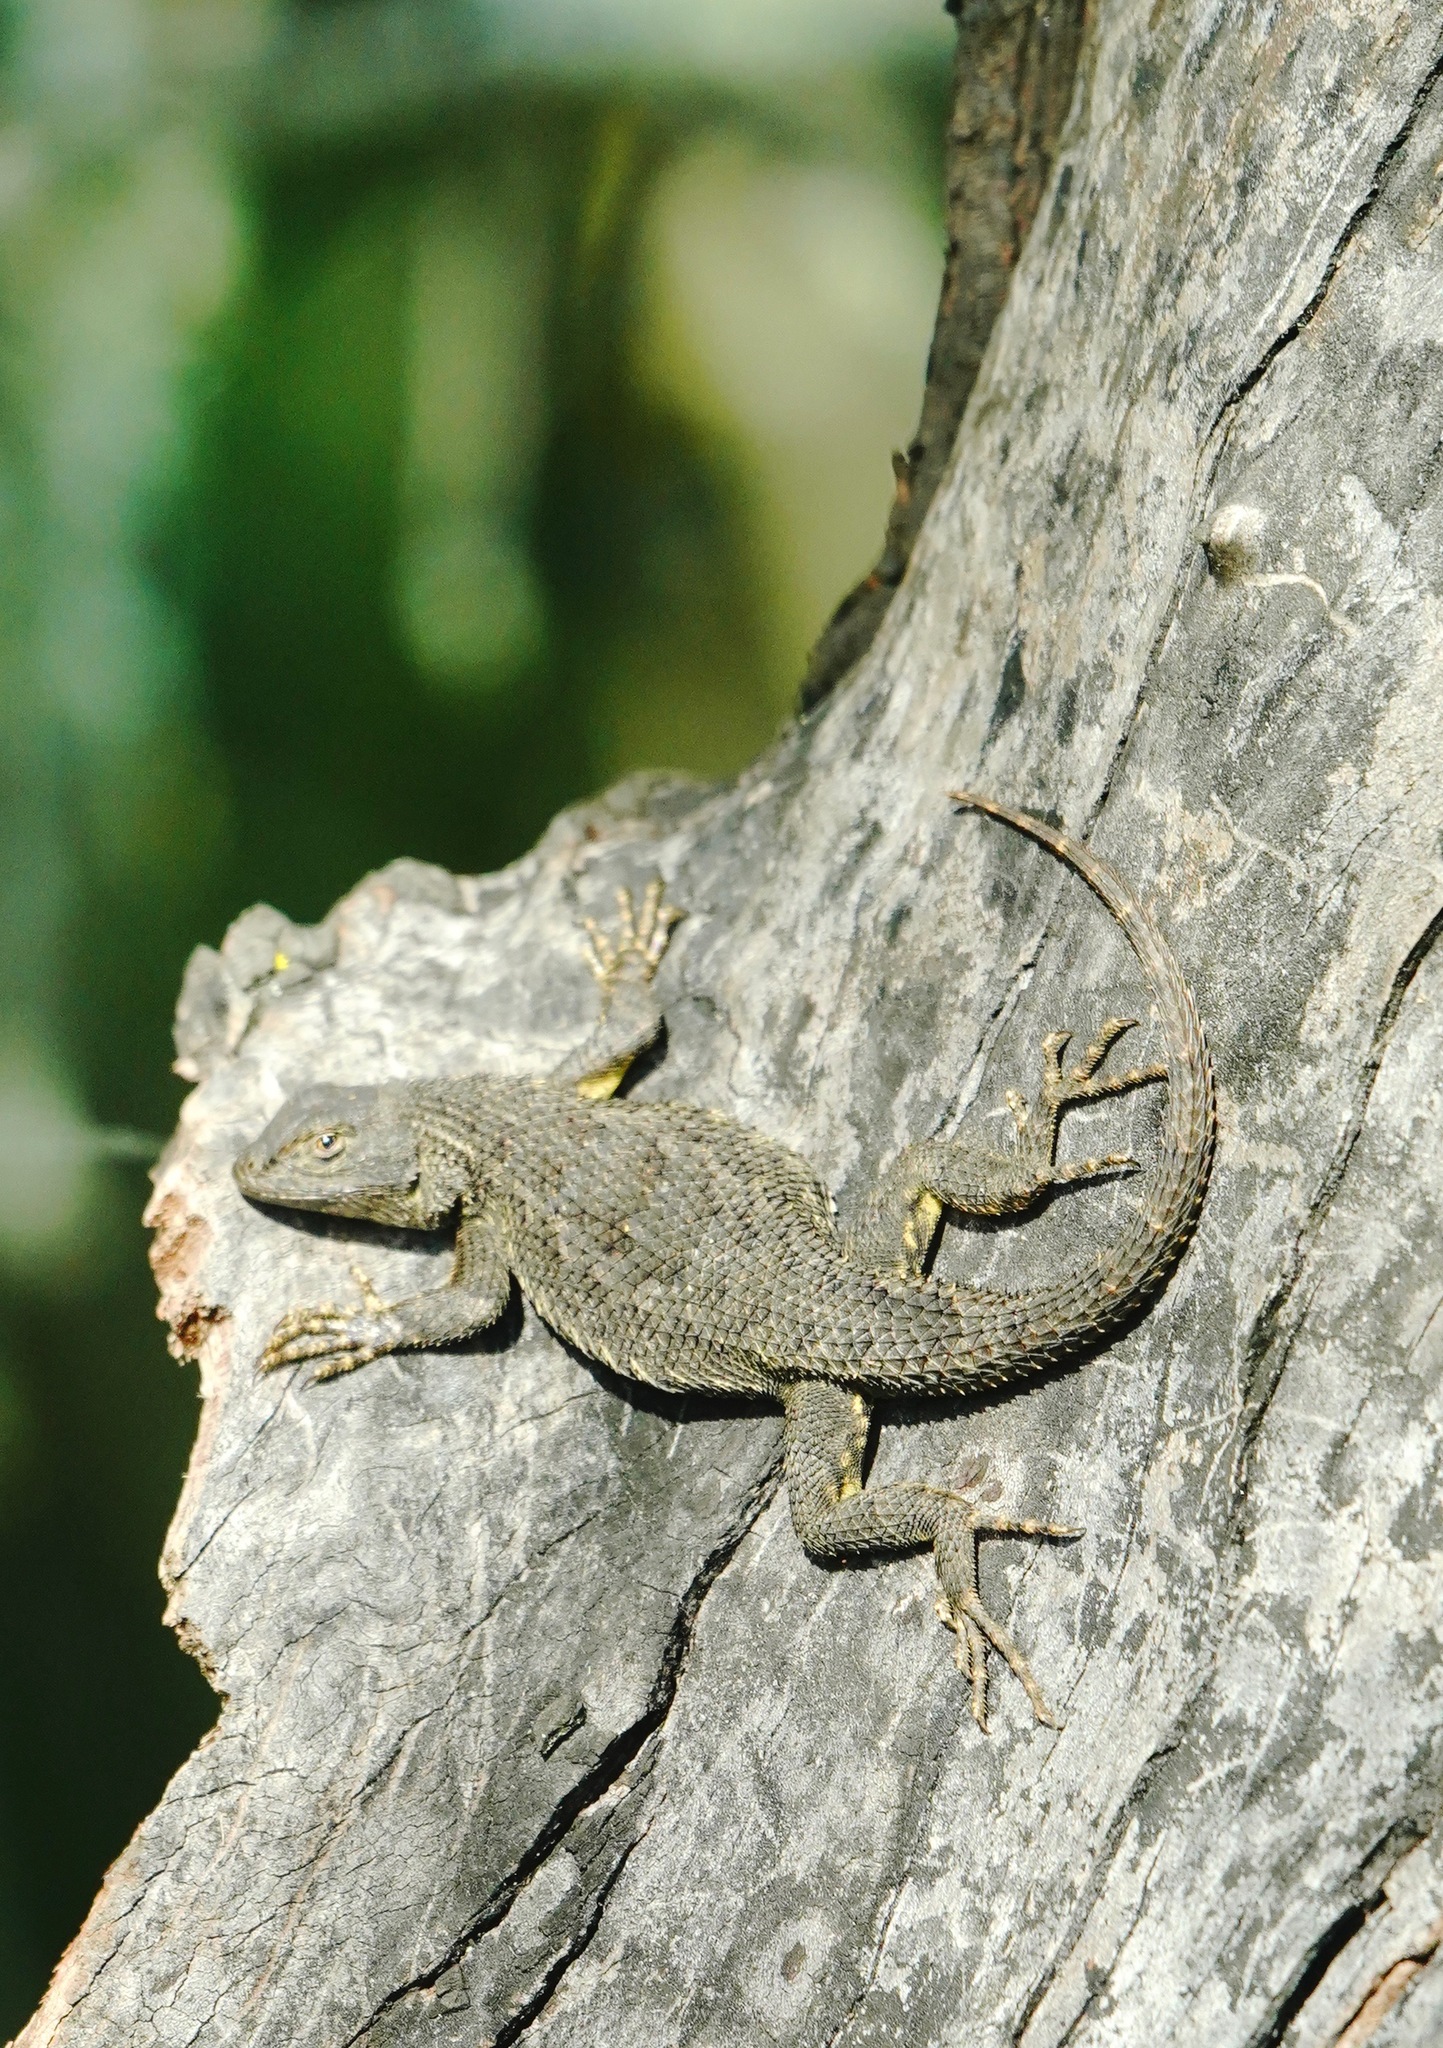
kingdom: Animalia
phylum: Chordata
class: Squamata
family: Phrynosomatidae
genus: Sceloporus
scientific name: Sceloporus occidentalis
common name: Western fence lizard
